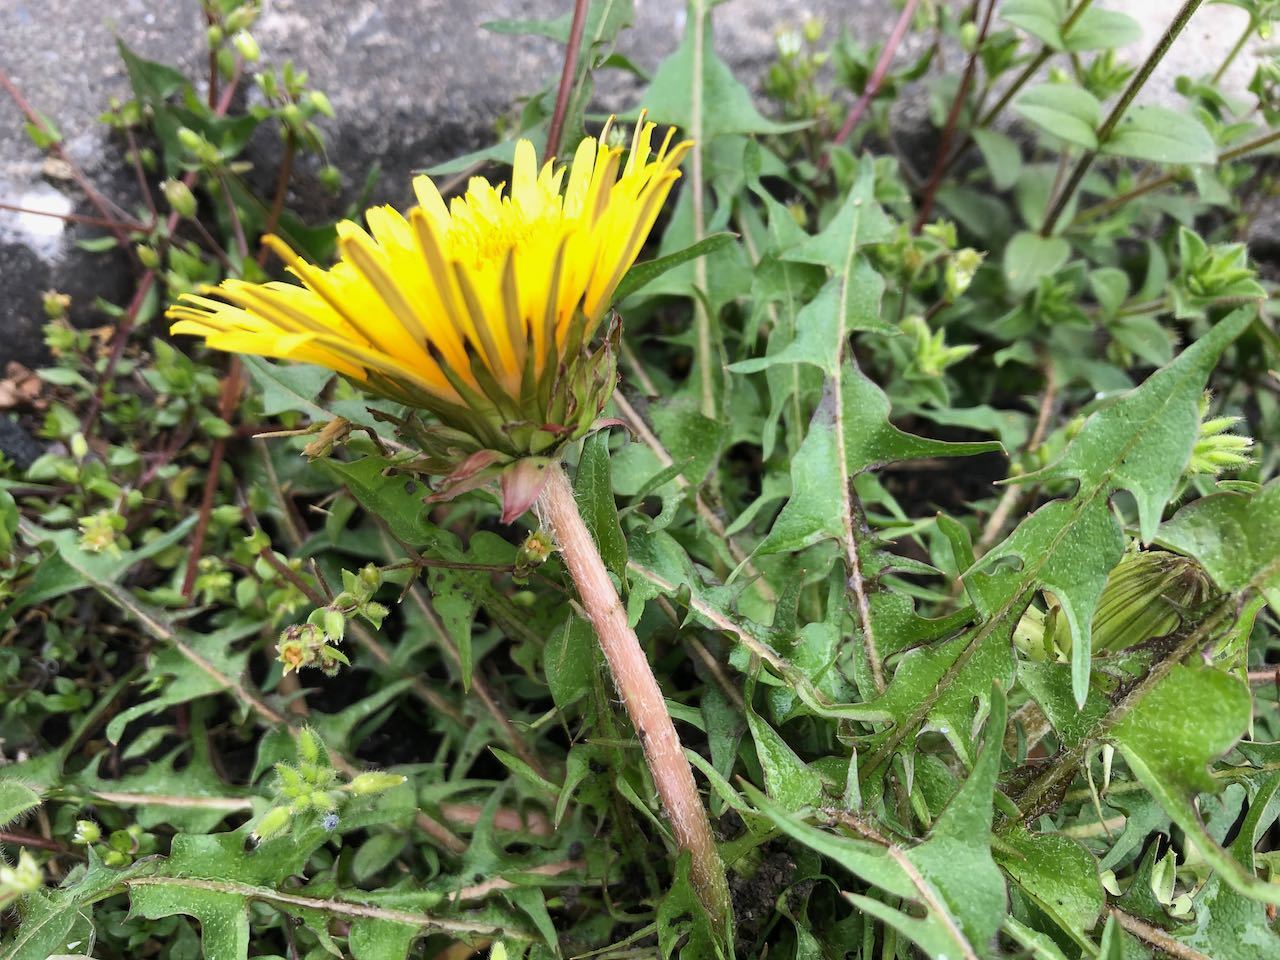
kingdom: Plantae
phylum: Tracheophyta
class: Magnoliopsida
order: Asterales
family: Asteraceae
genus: Taraxacum
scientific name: Taraxacum officinale
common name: Common dandelion
